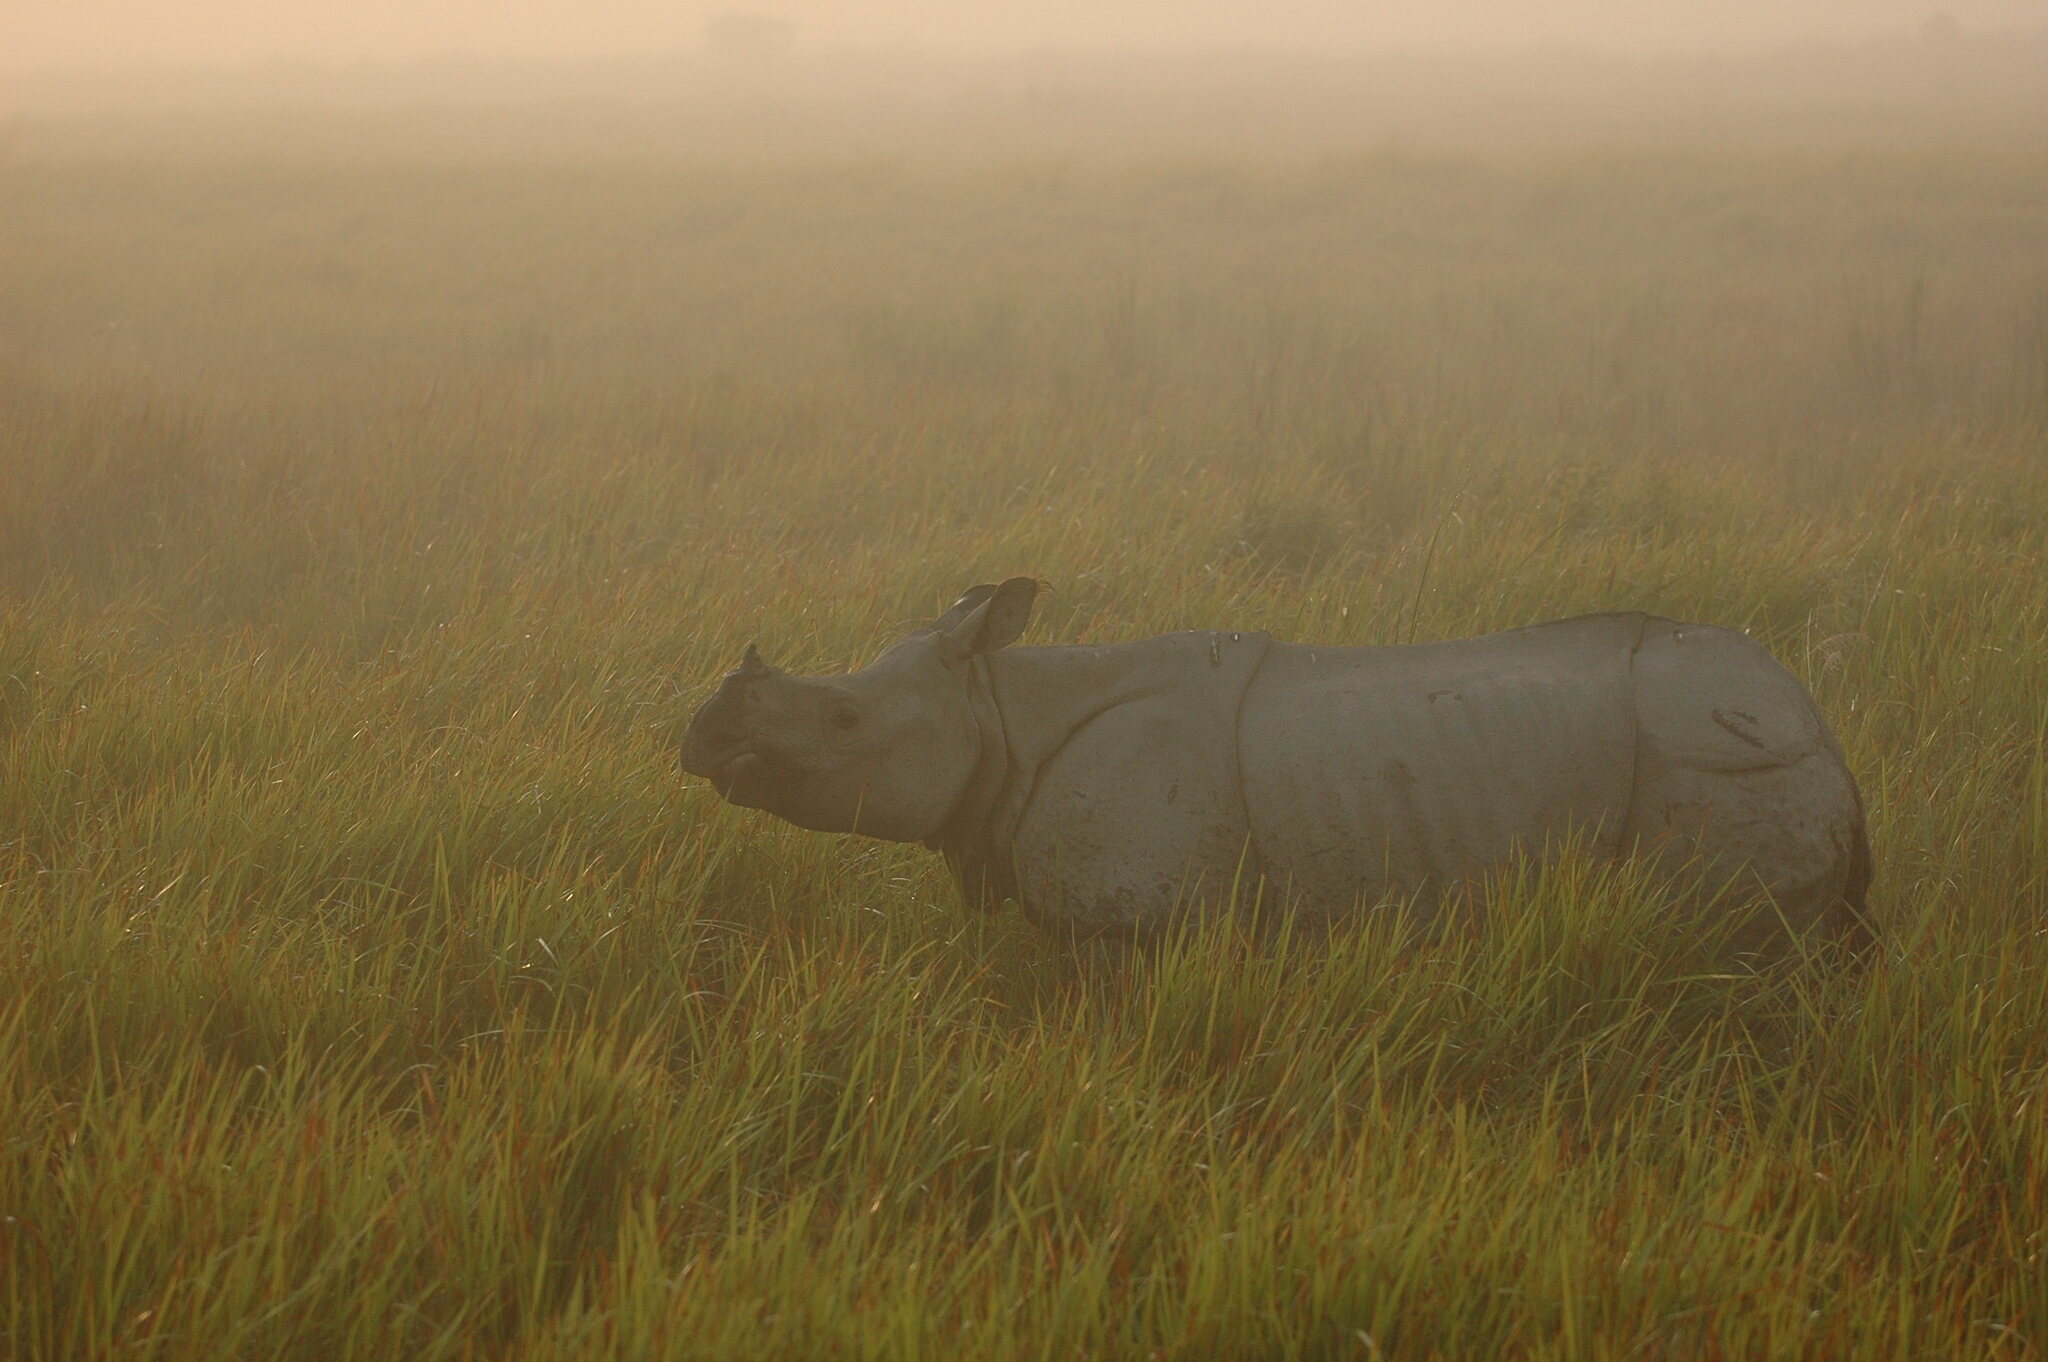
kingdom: Animalia
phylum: Chordata
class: Mammalia
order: Perissodactyla
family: Rhinocerotidae
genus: Rhinoceros
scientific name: Rhinoceros unicornis
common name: Indian rhinoceros
